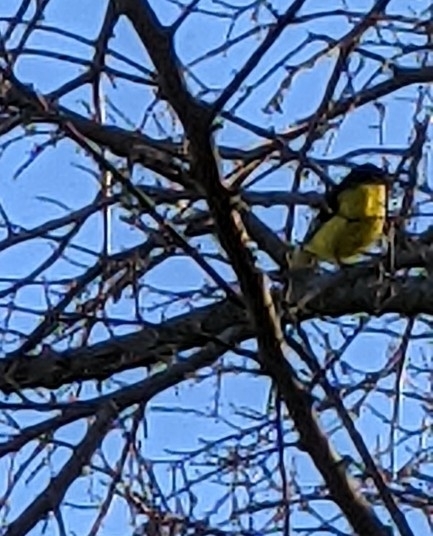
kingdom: Animalia
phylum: Chordata
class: Aves
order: Passeriformes
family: Fringillidae
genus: Spinus
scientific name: Spinus psaltria
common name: Lesser goldfinch
